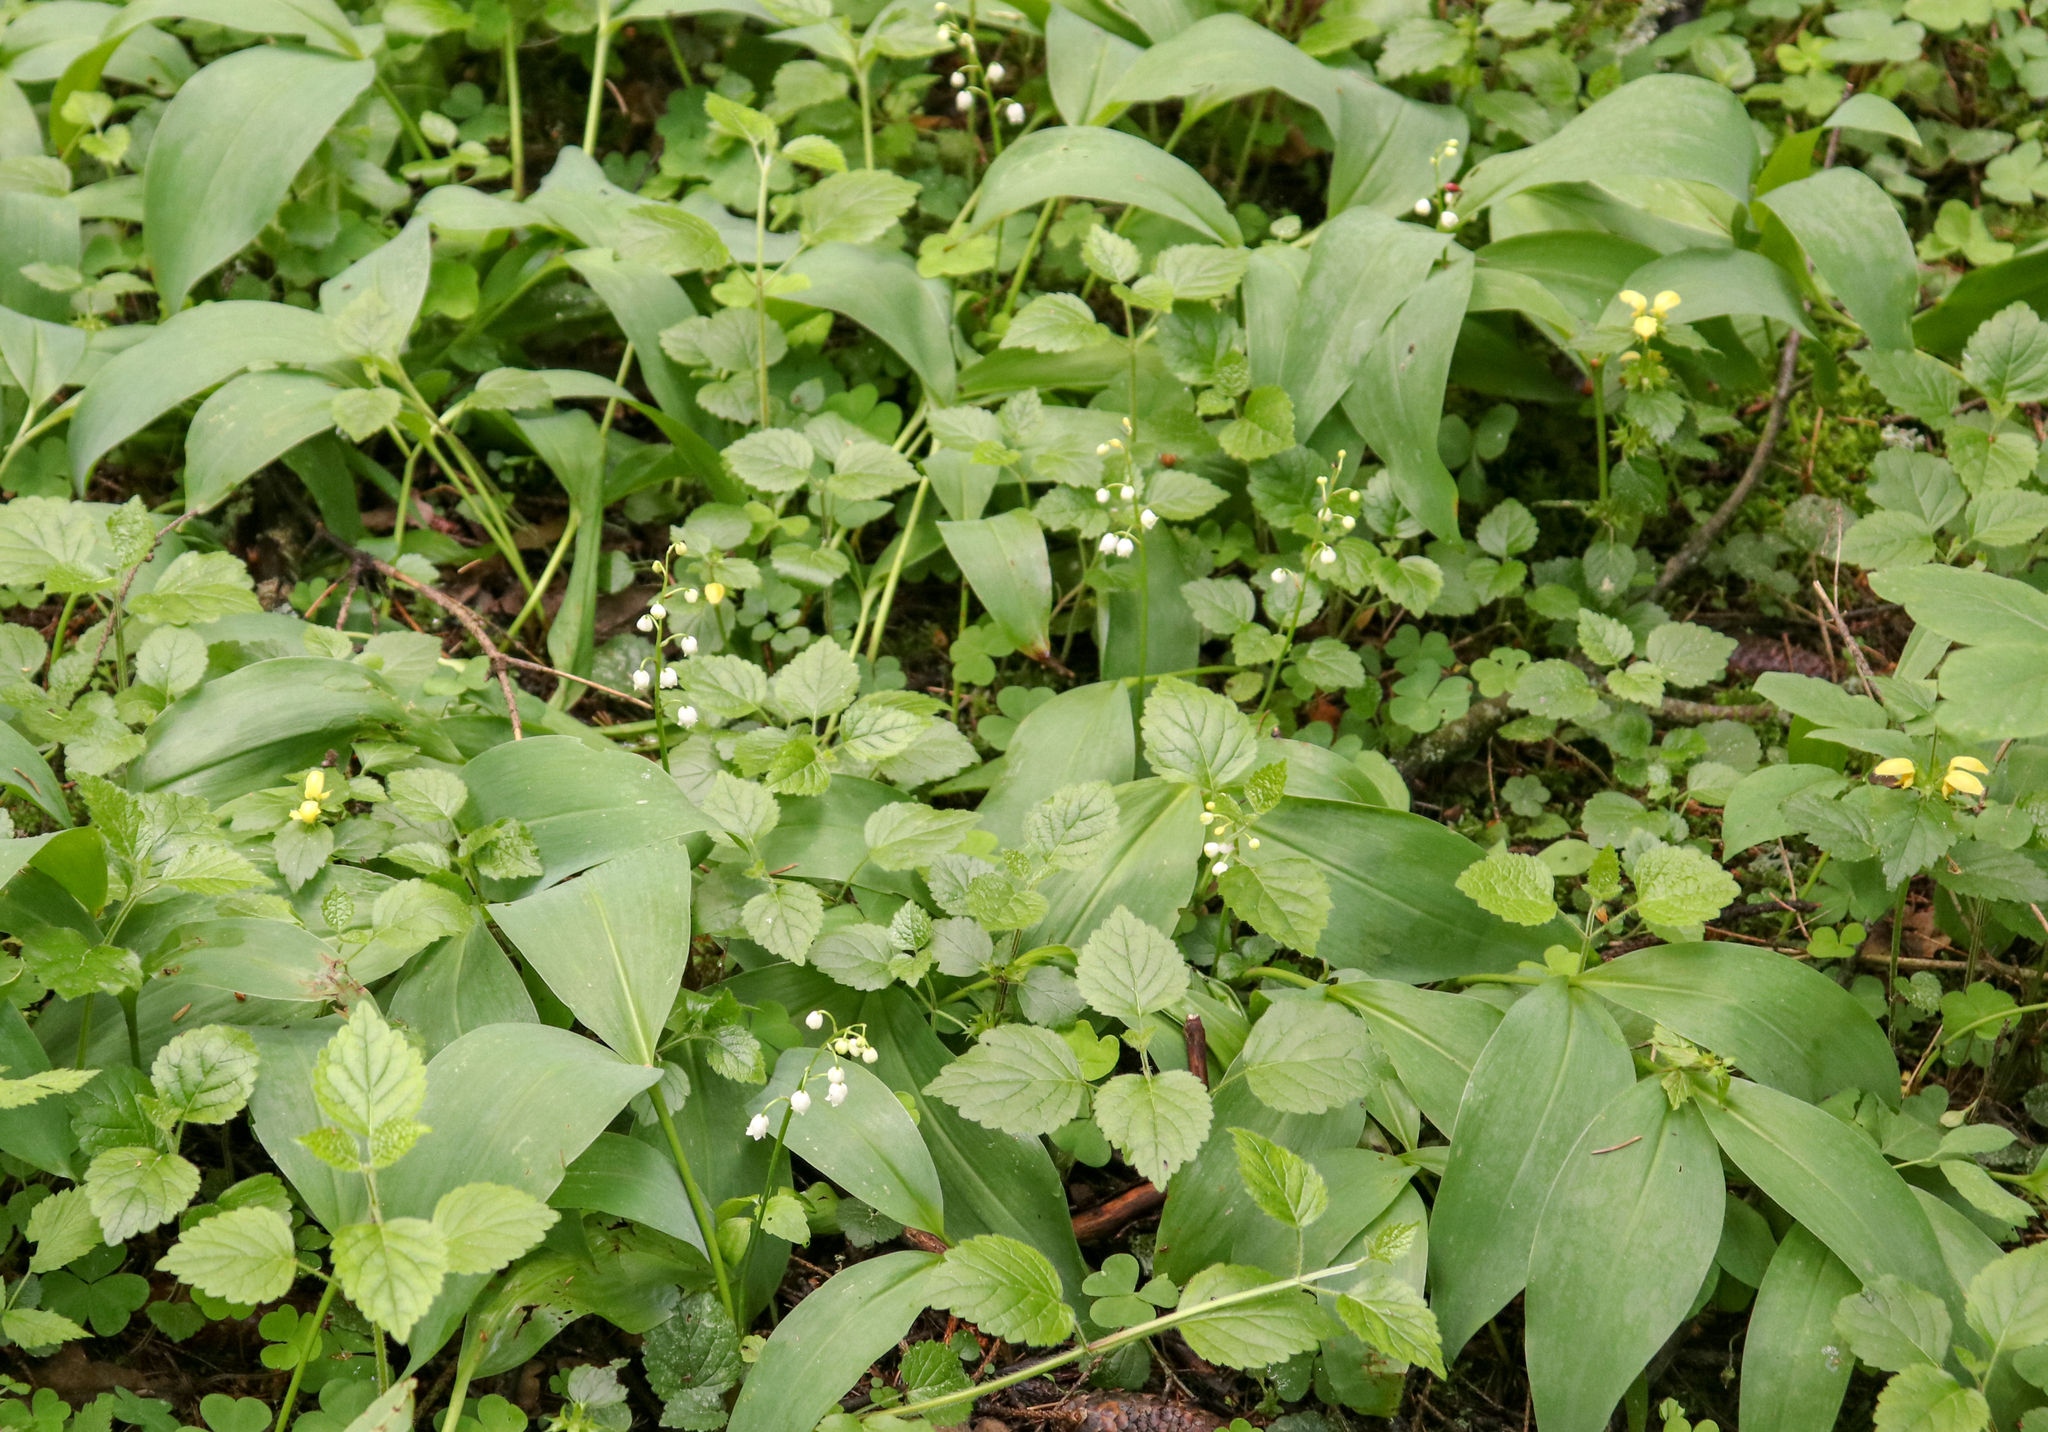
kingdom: Plantae
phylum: Tracheophyta
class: Liliopsida
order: Asparagales
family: Asparagaceae
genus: Convallaria
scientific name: Convallaria majalis
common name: Lily-of-the-valley
